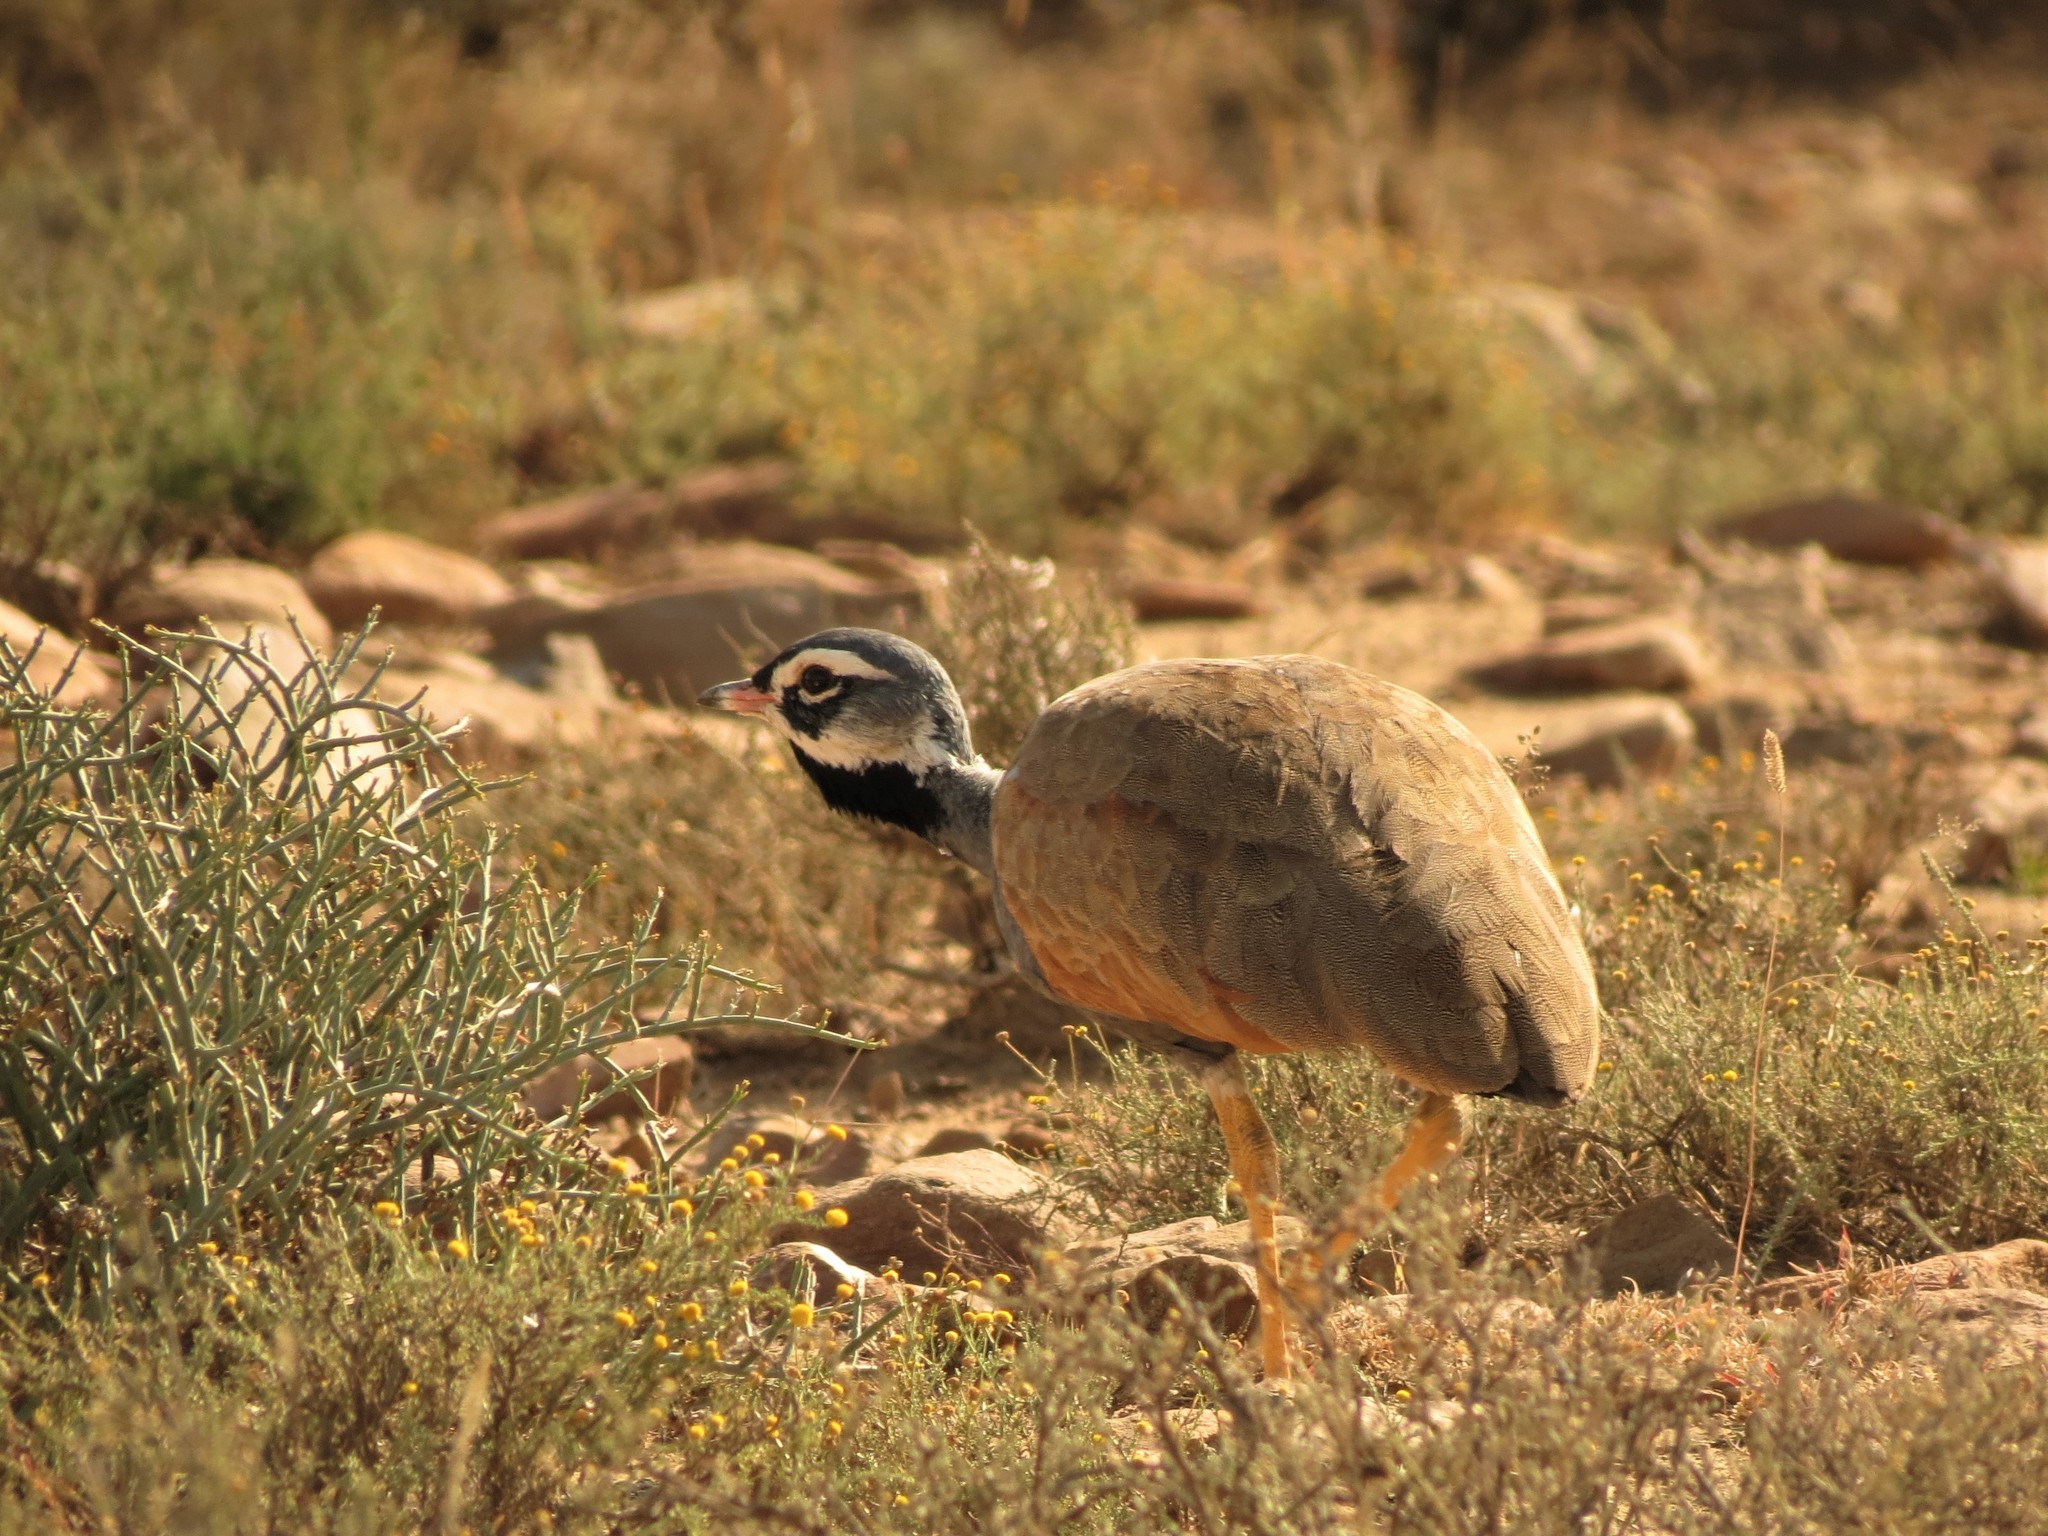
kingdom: Animalia
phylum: Chordata
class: Aves
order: Otidiformes
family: Otididae
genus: Eupodotis
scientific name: Eupodotis caerulescens
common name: Blue korhaan
